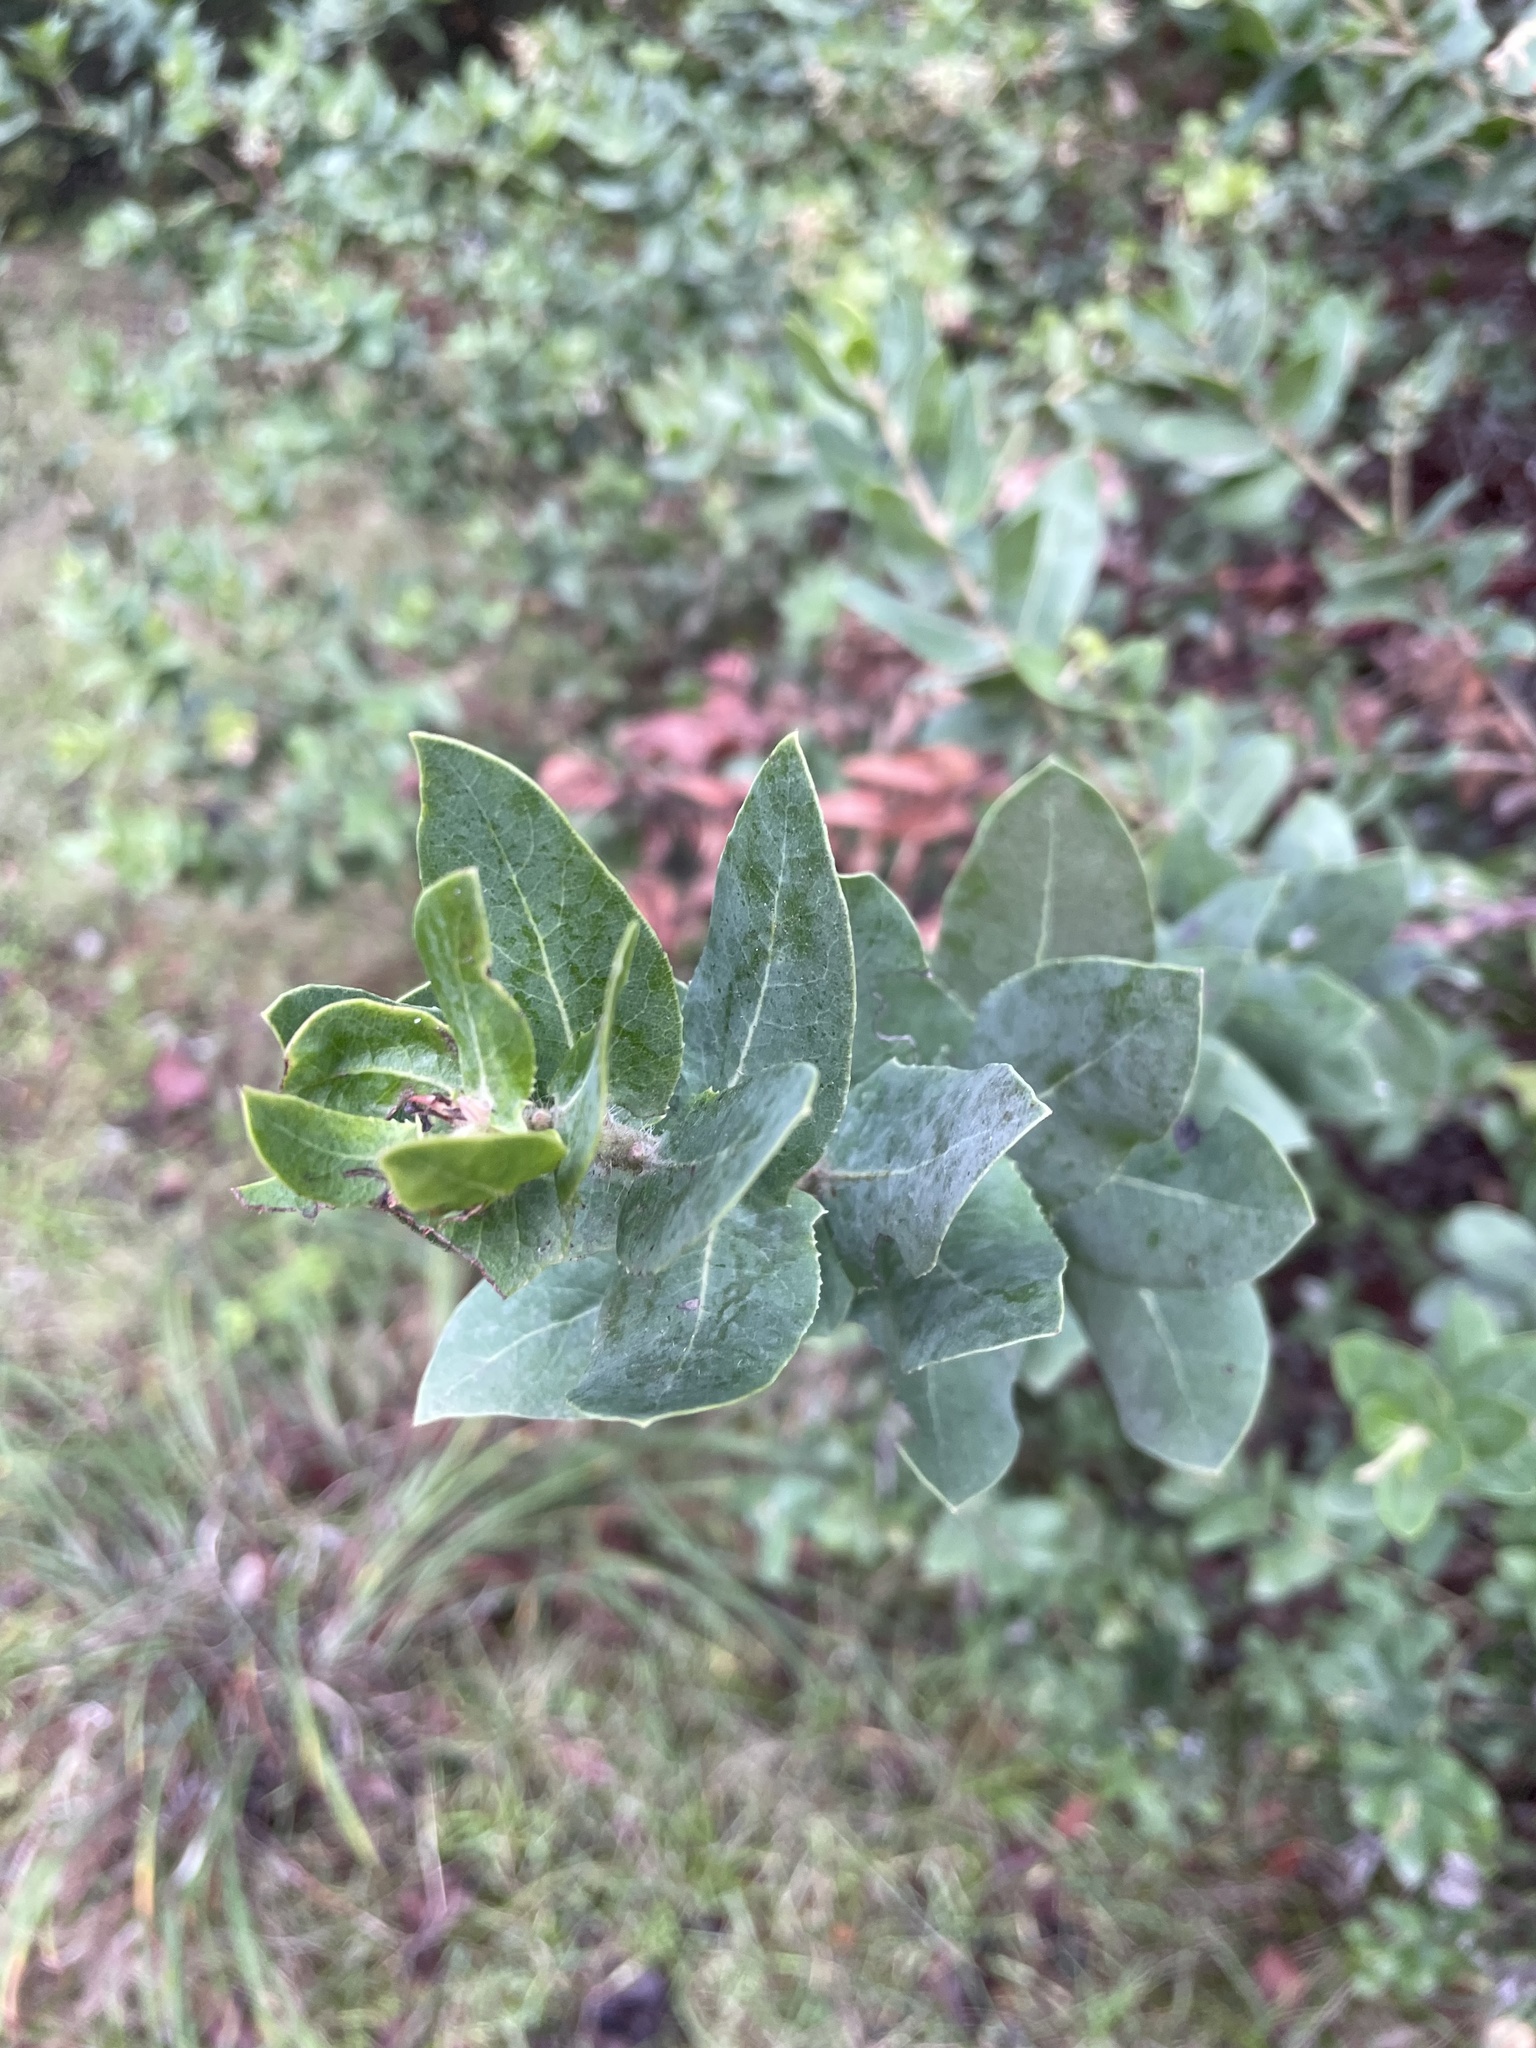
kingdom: Plantae
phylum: Tracheophyta
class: Magnoliopsida
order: Ericales
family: Ericaceae
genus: Arctostaphylos
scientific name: Arctostaphylos andersonii
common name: Santa cruz manzanita
